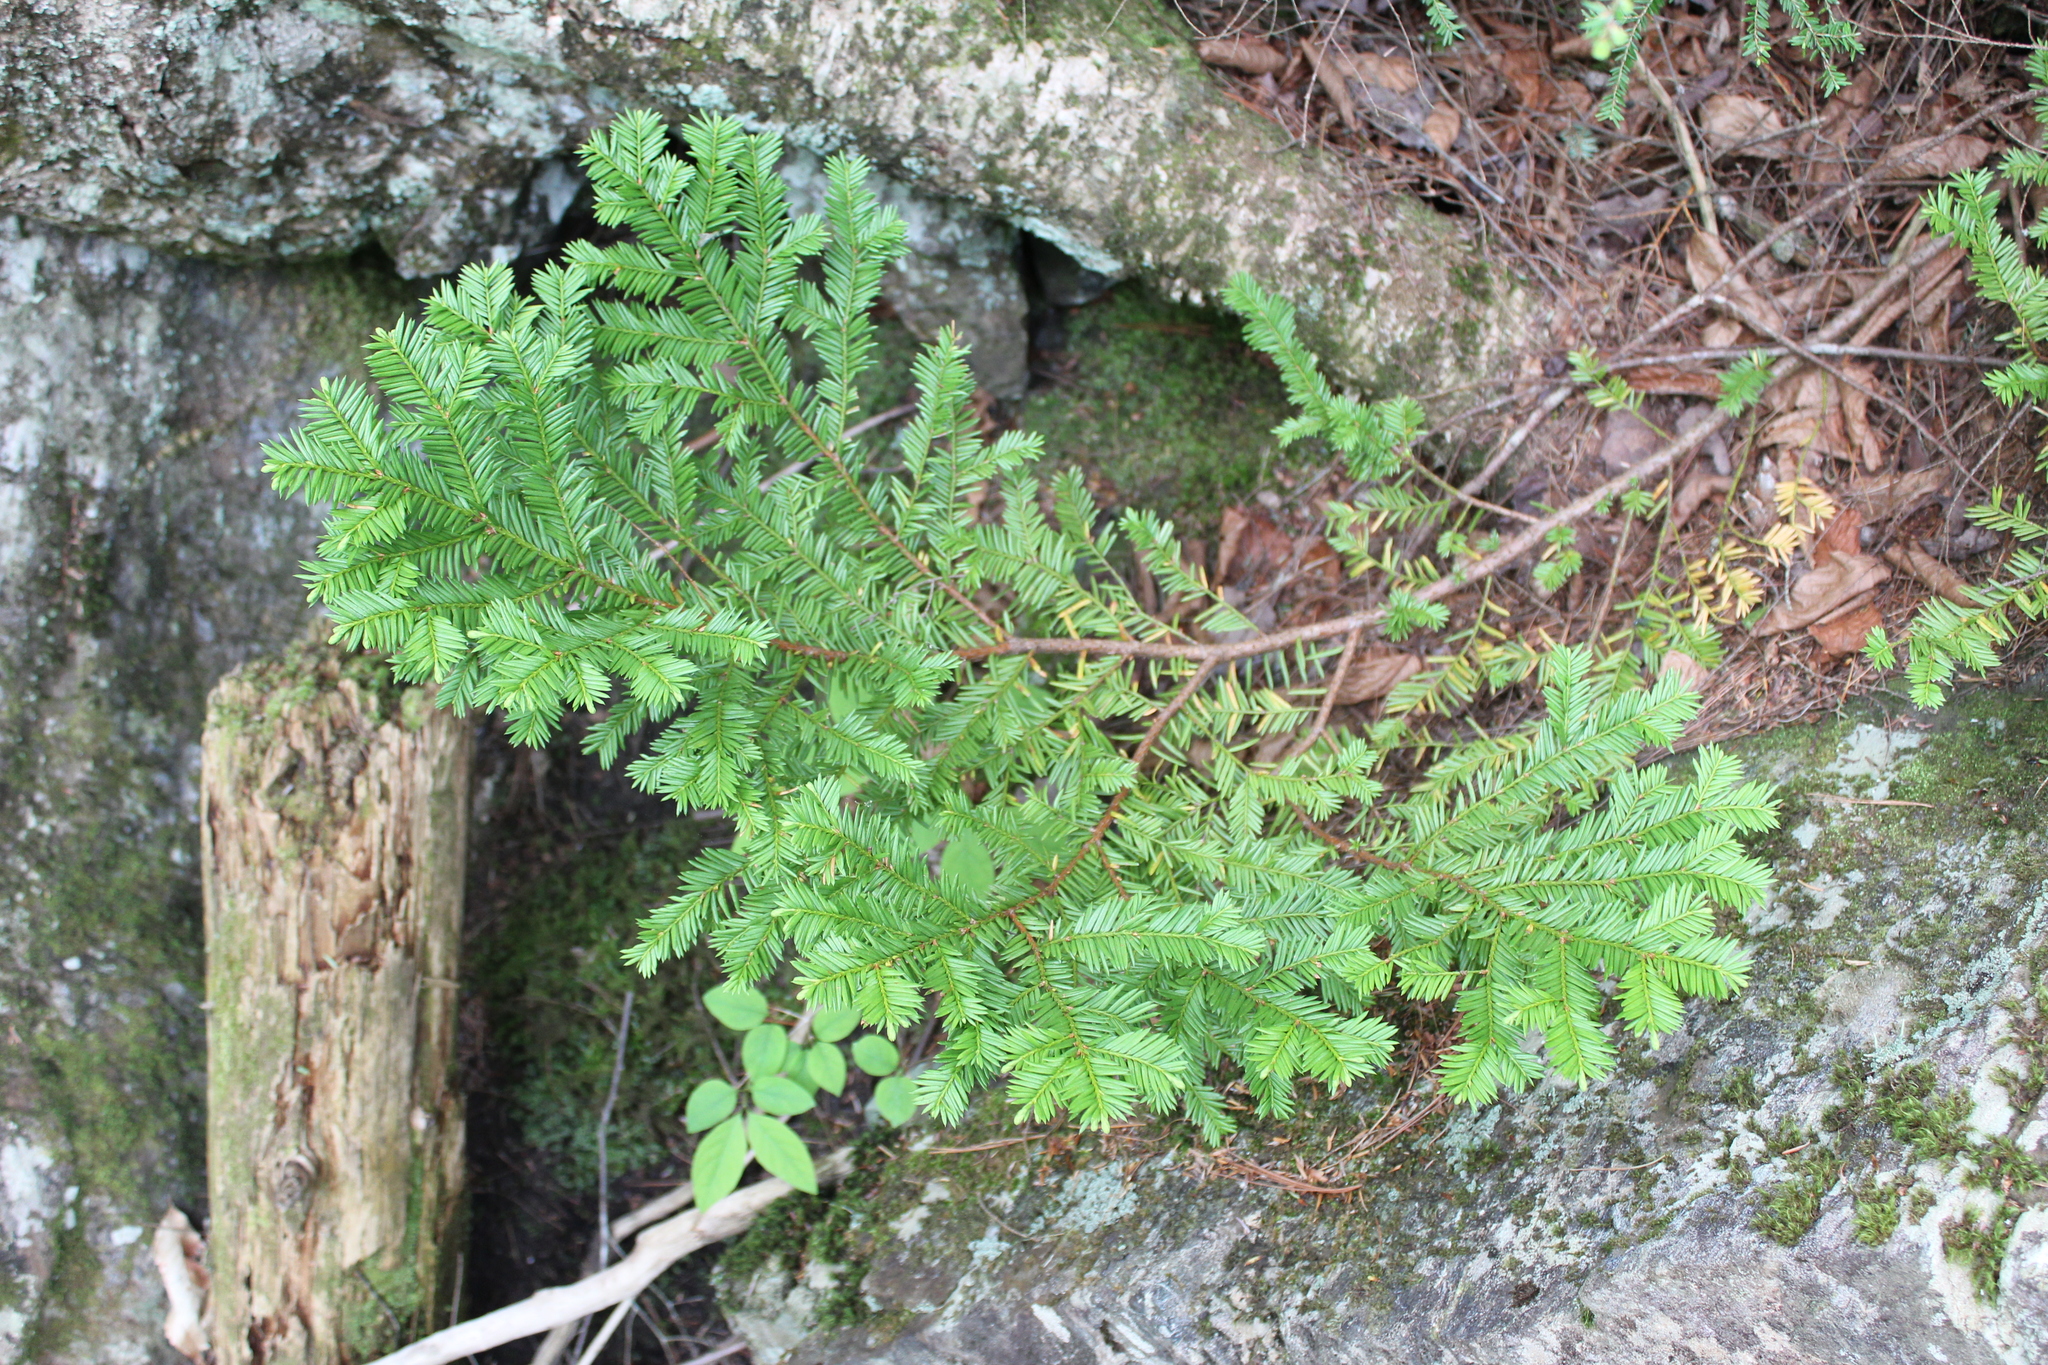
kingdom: Plantae
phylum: Tracheophyta
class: Pinopsida
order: Pinales
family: Taxaceae
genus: Taxus
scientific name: Taxus canadensis
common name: American yew
